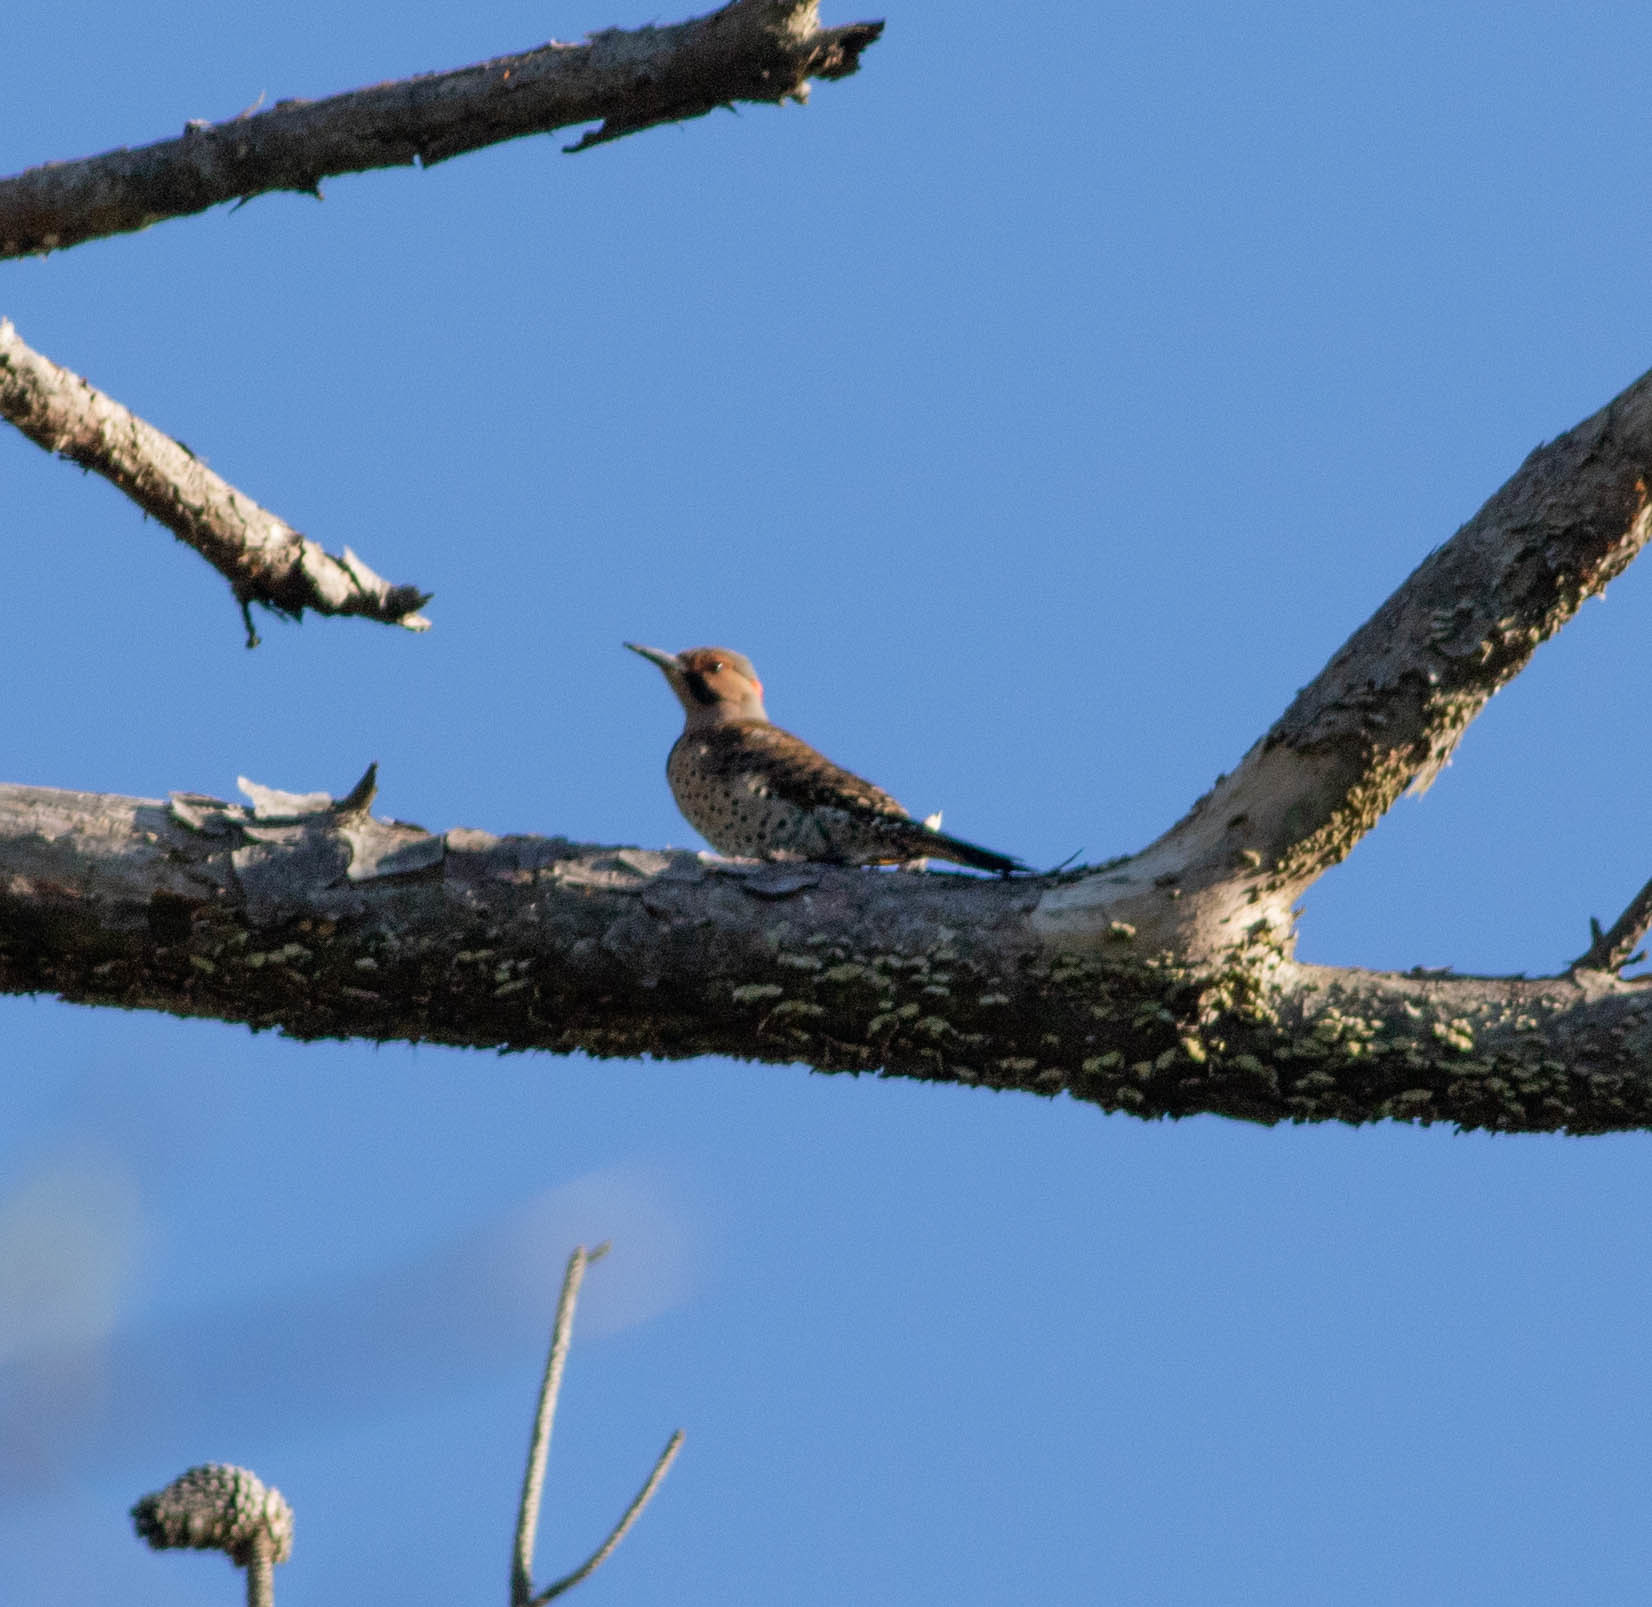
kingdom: Animalia
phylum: Chordata
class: Aves
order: Piciformes
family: Picidae
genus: Colaptes
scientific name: Colaptes auratus
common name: Northern flicker
